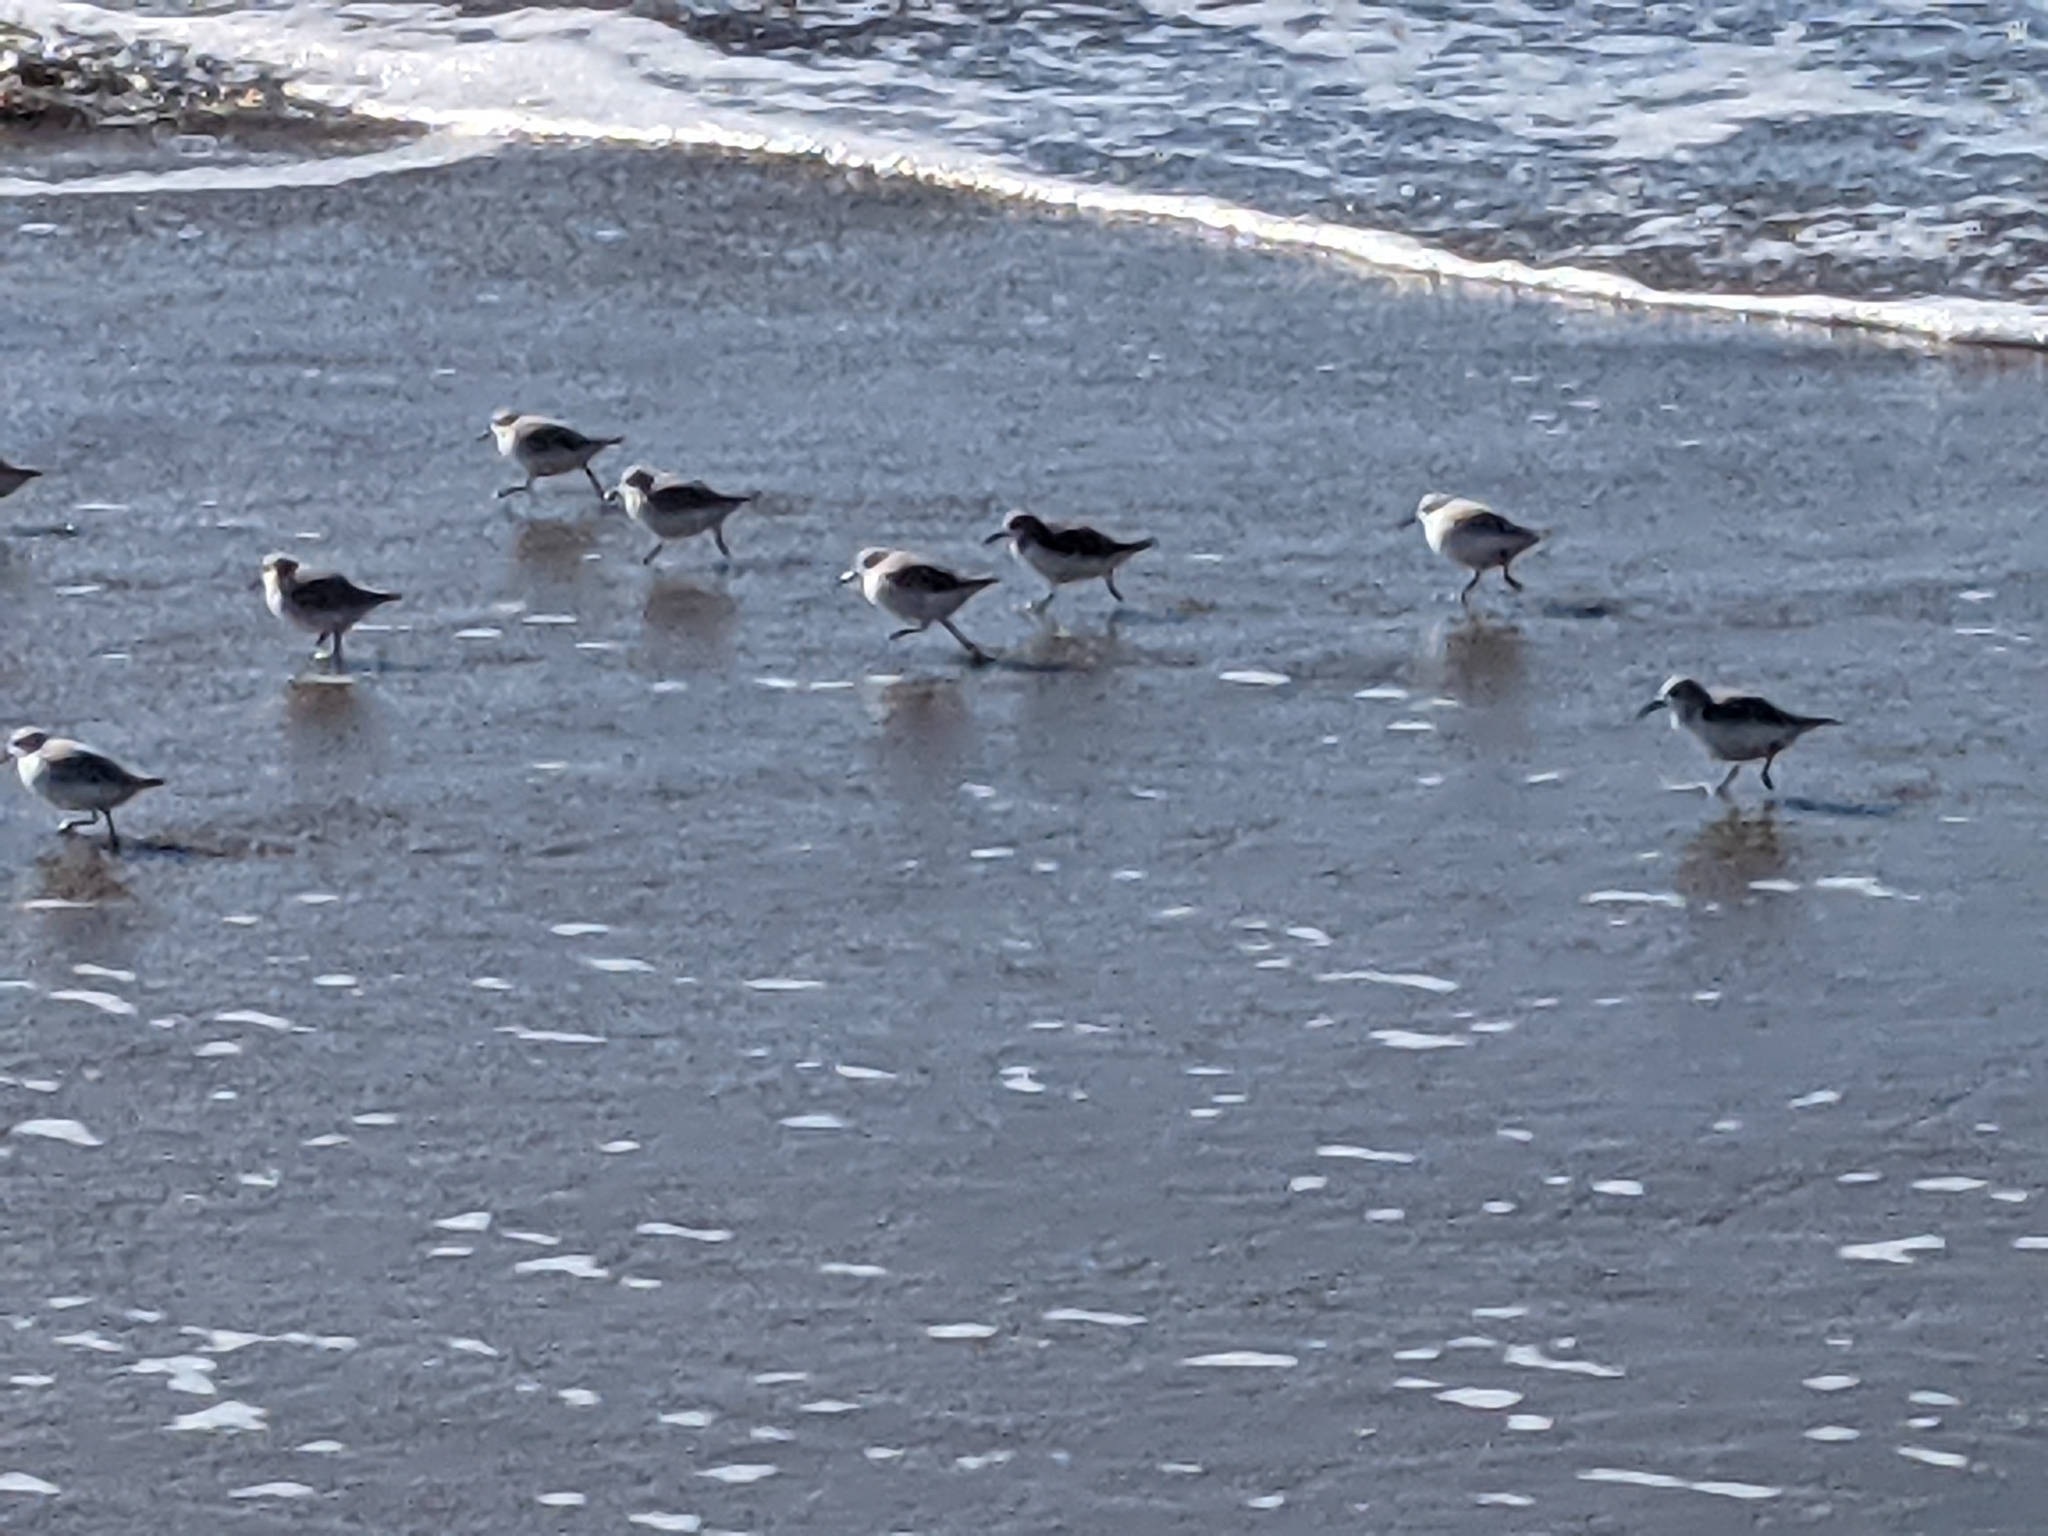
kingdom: Animalia
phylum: Chordata
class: Aves
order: Charadriiformes
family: Scolopacidae
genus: Calidris
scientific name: Calidris alba
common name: Sanderling
